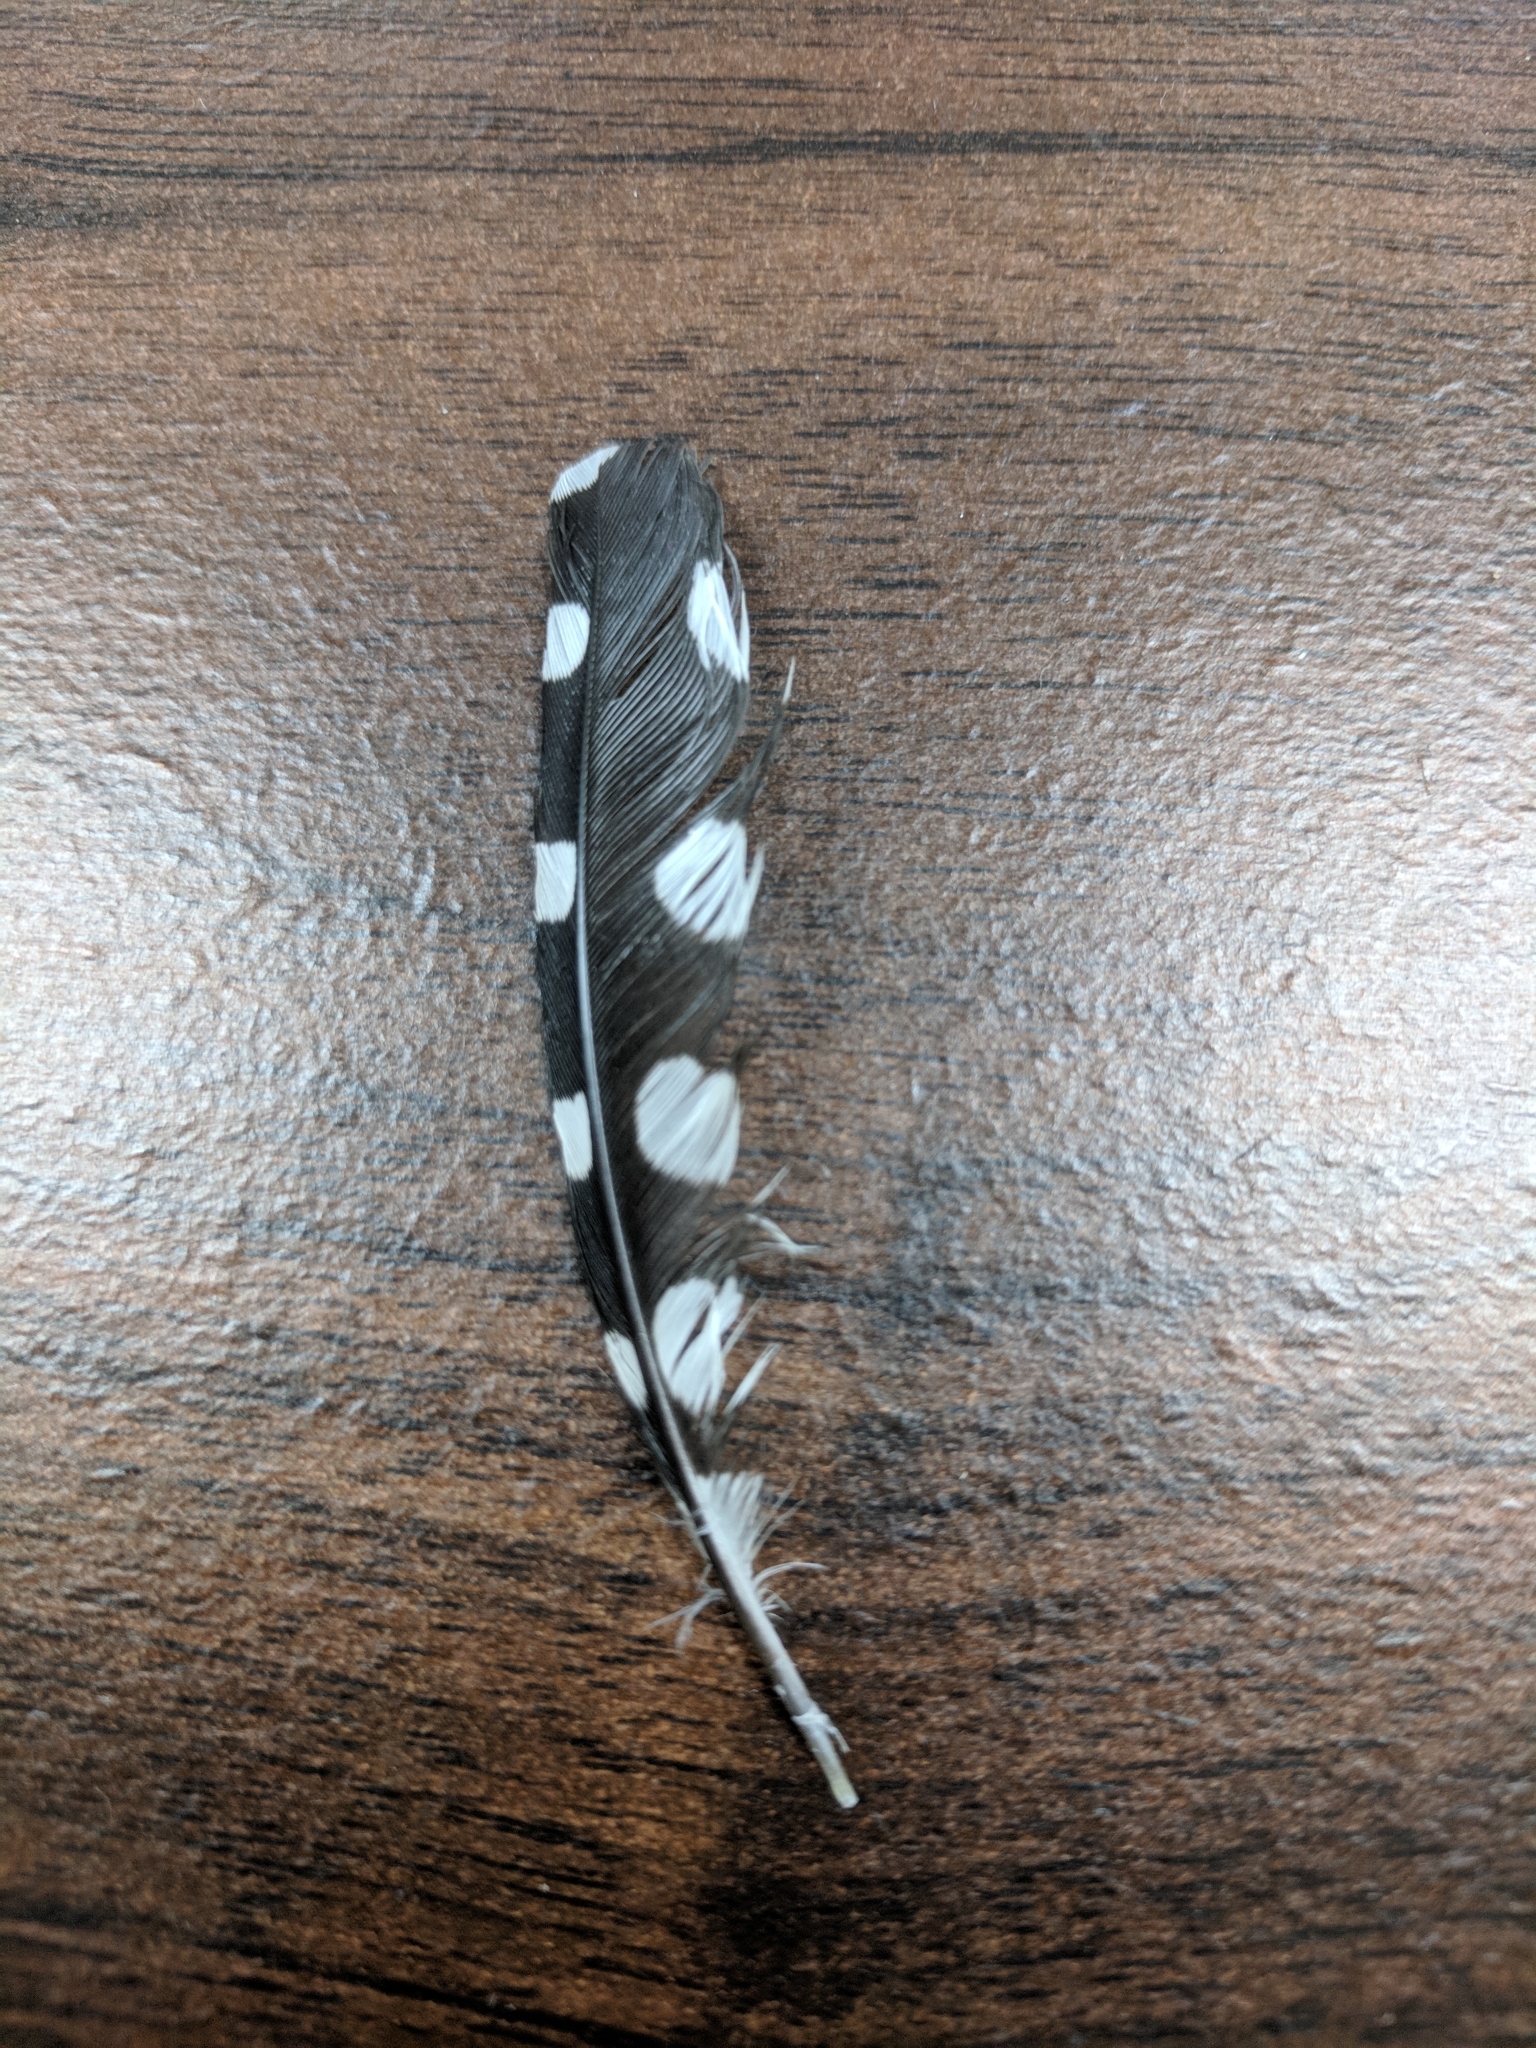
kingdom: Animalia
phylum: Chordata
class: Aves
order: Piciformes
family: Picidae
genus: Dryobates
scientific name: Dryobates pubescens
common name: Downy woodpecker
